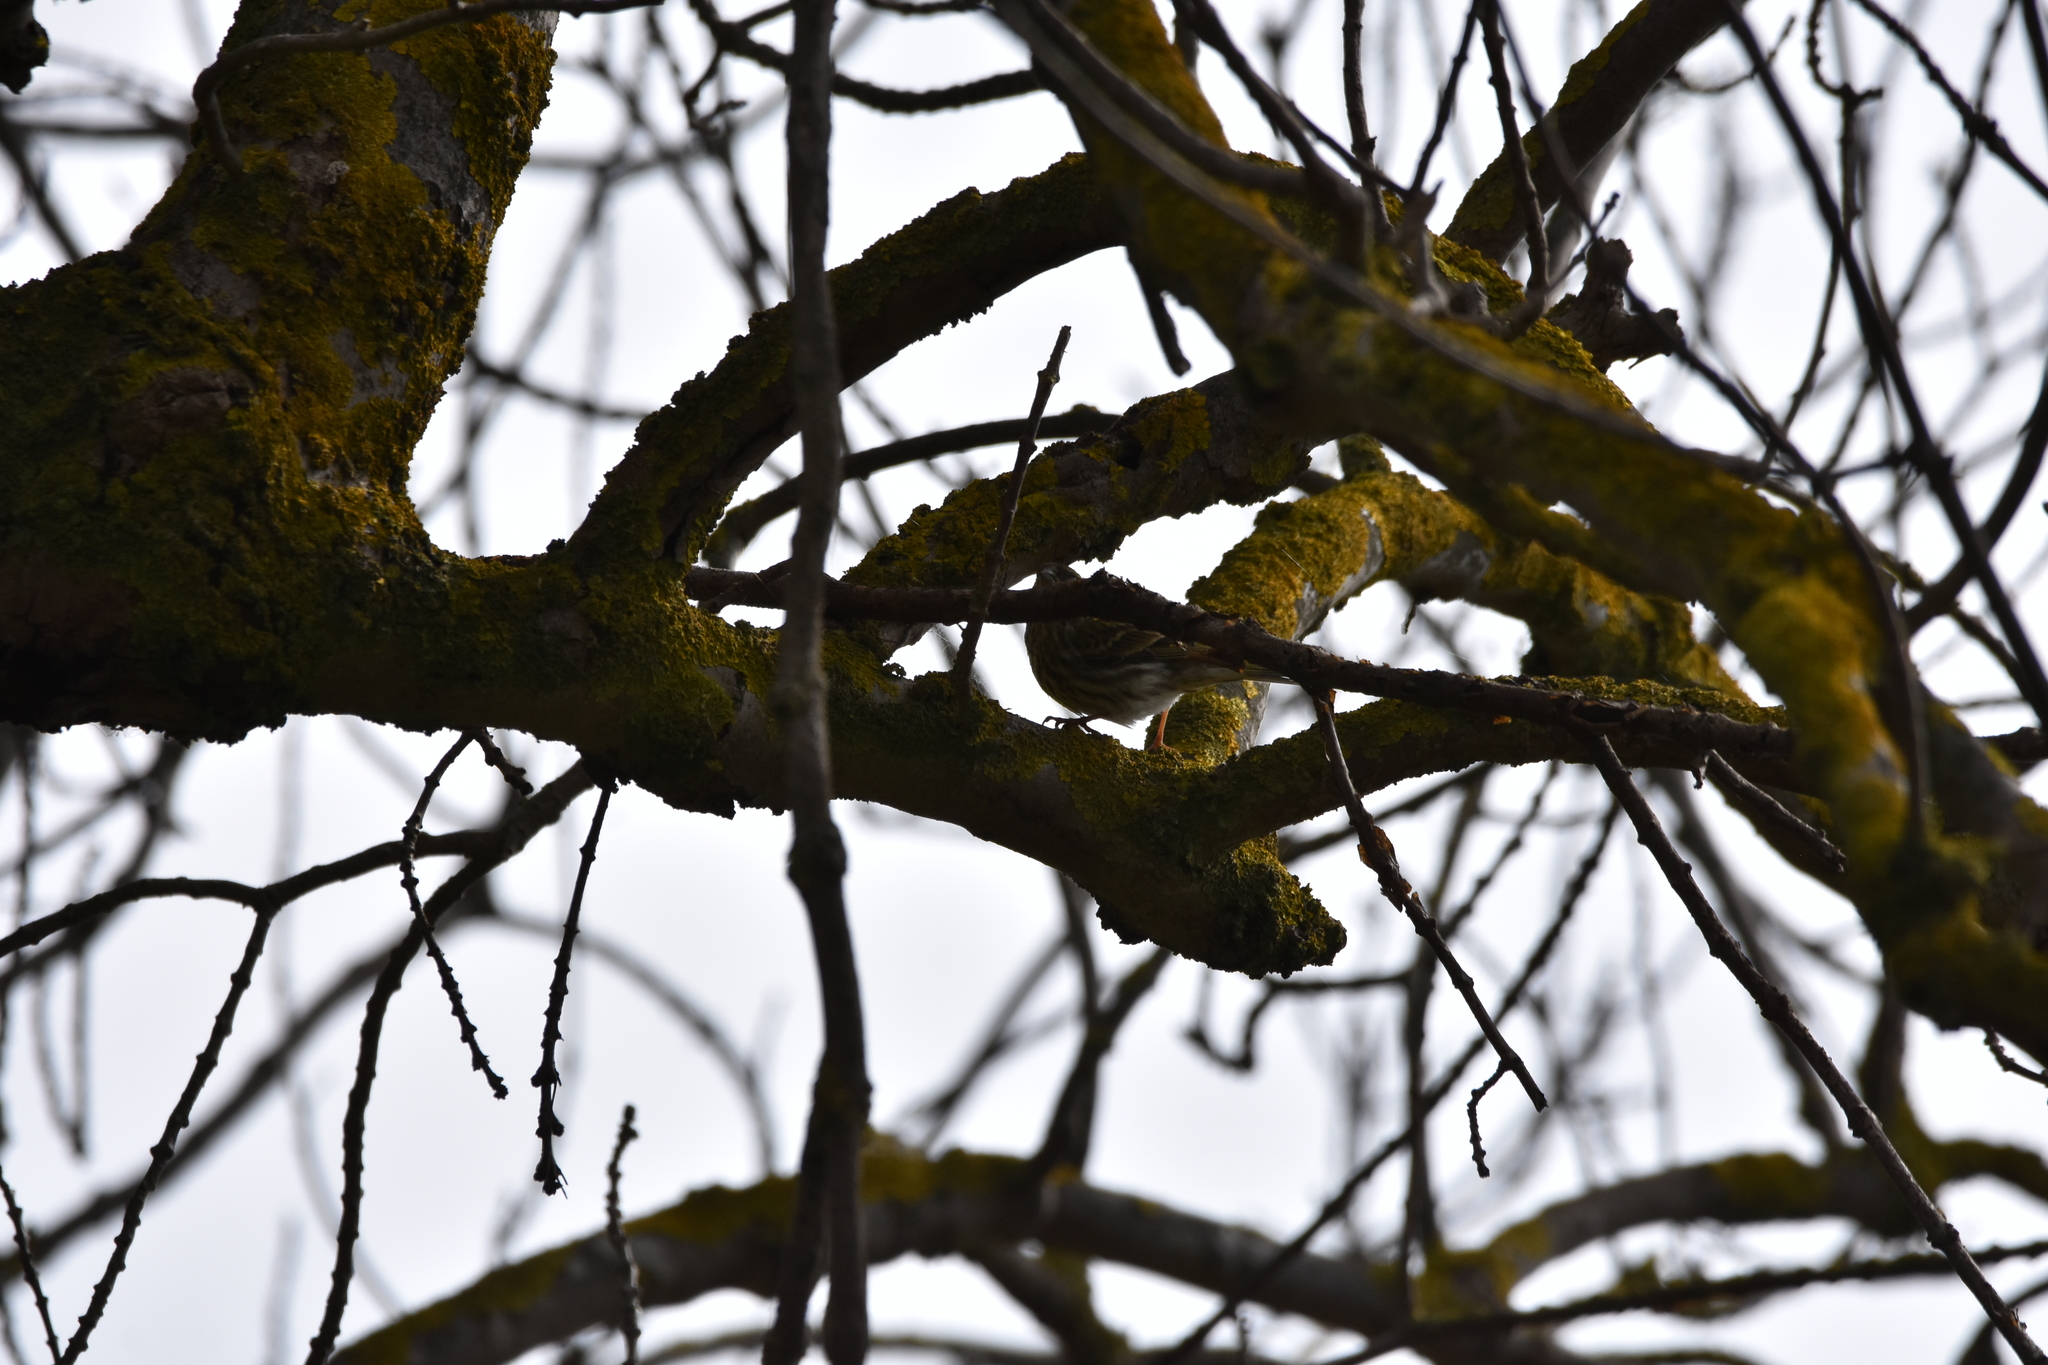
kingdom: Animalia
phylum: Chordata
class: Aves
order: Passeriformes
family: Motacillidae
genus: Anthus
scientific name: Anthus pratensis
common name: Meadow pipit
